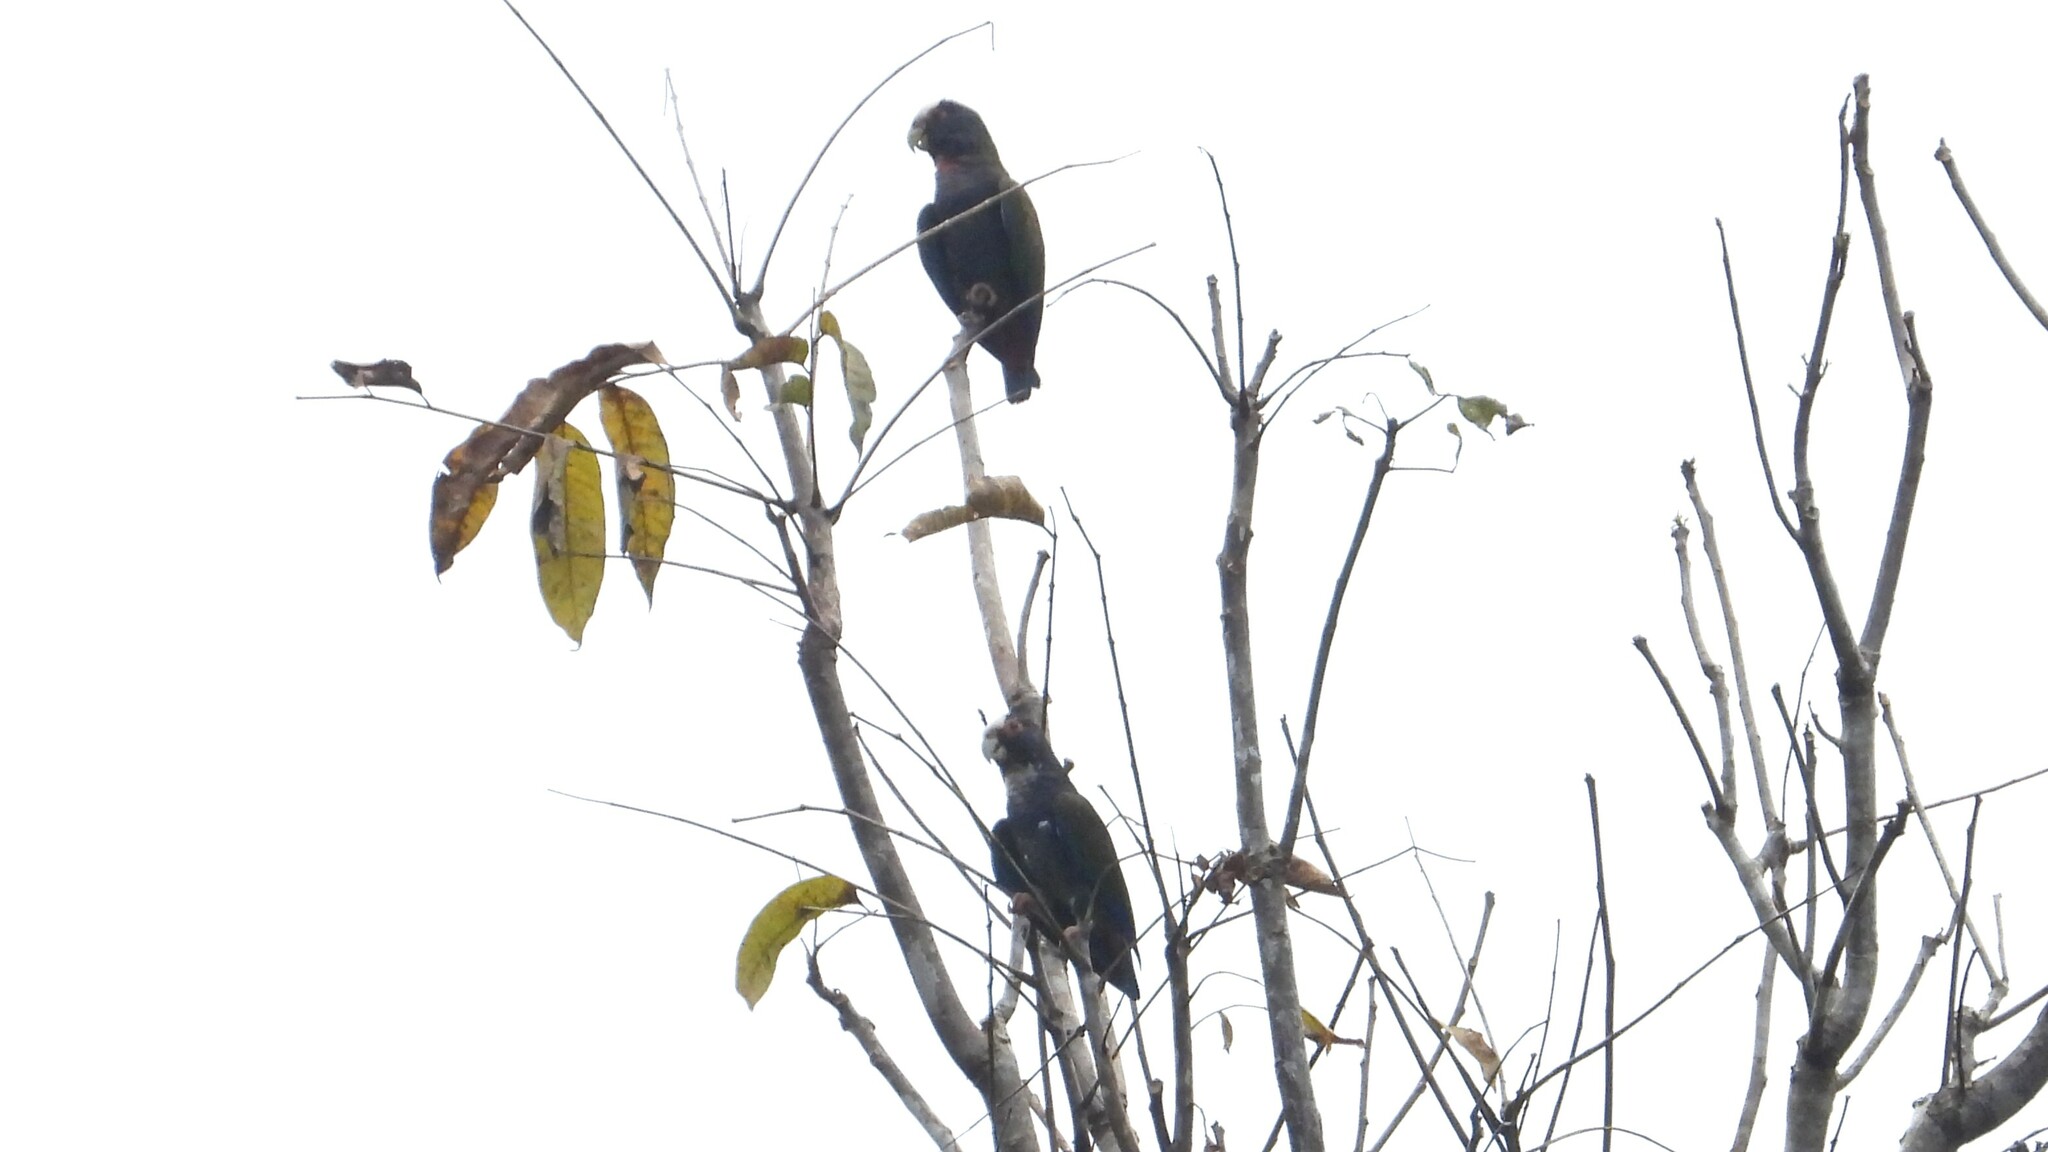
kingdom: Animalia
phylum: Chordata
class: Aves
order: Psittaciformes
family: Psittacidae
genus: Pionus
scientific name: Pionus senilis
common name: White-crowned parrot
